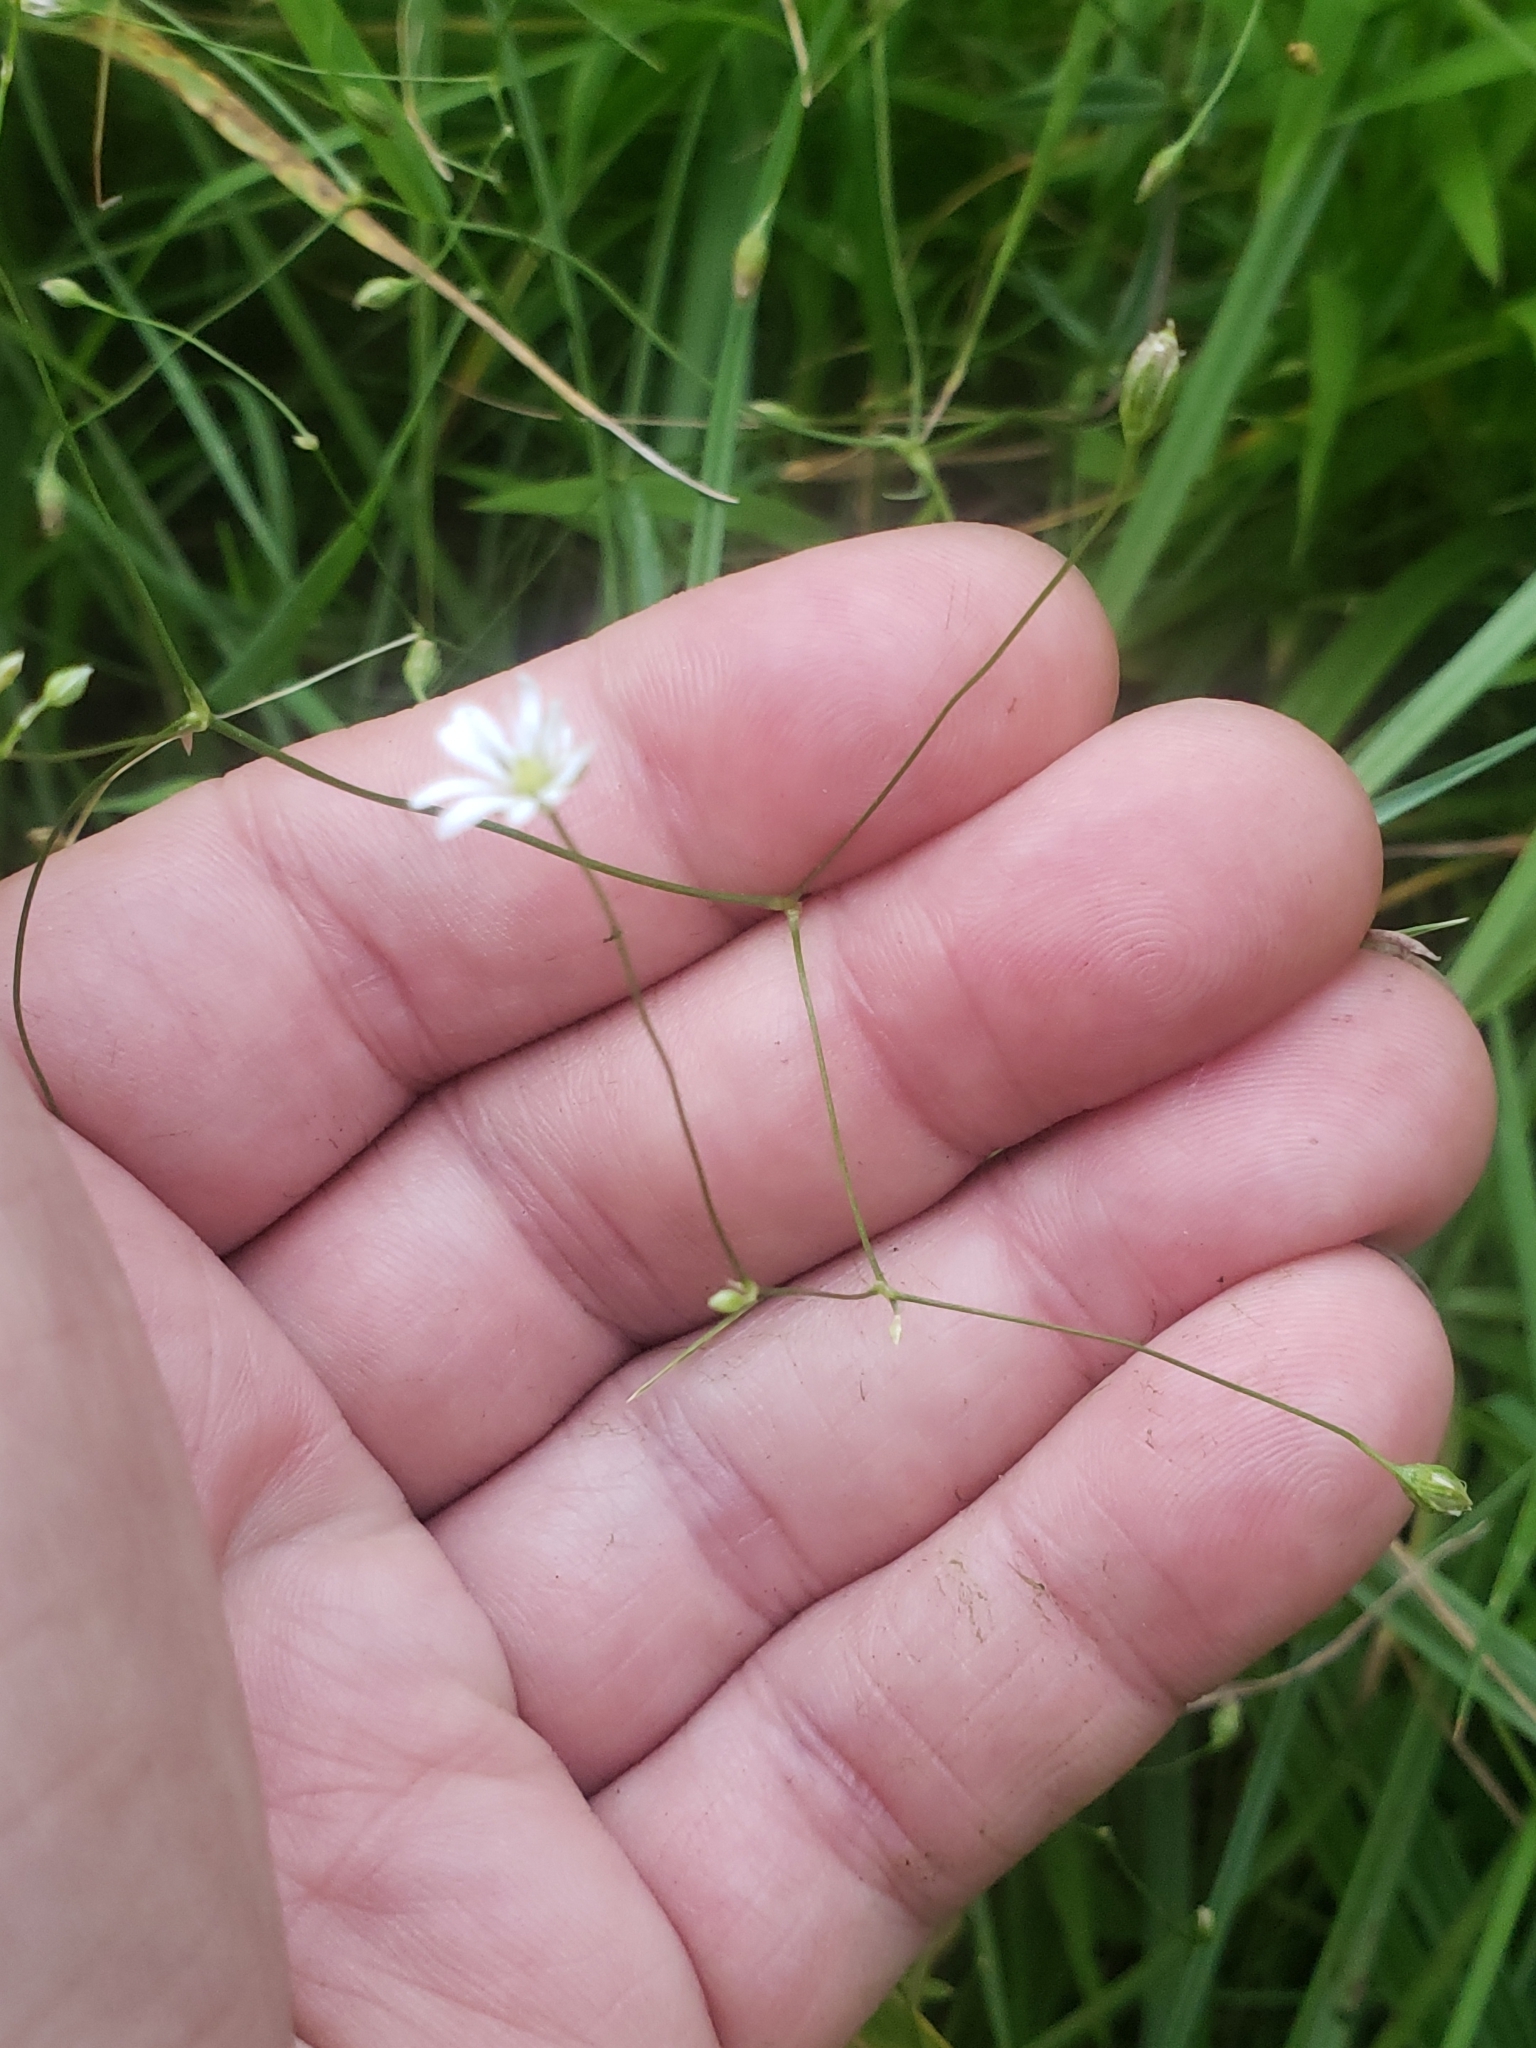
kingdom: Plantae
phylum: Tracheophyta
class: Magnoliopsida
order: Caryophyllales
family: Caryophyllaceae
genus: Stellaria
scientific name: Stellaria graminea
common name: Grass-like starwort
